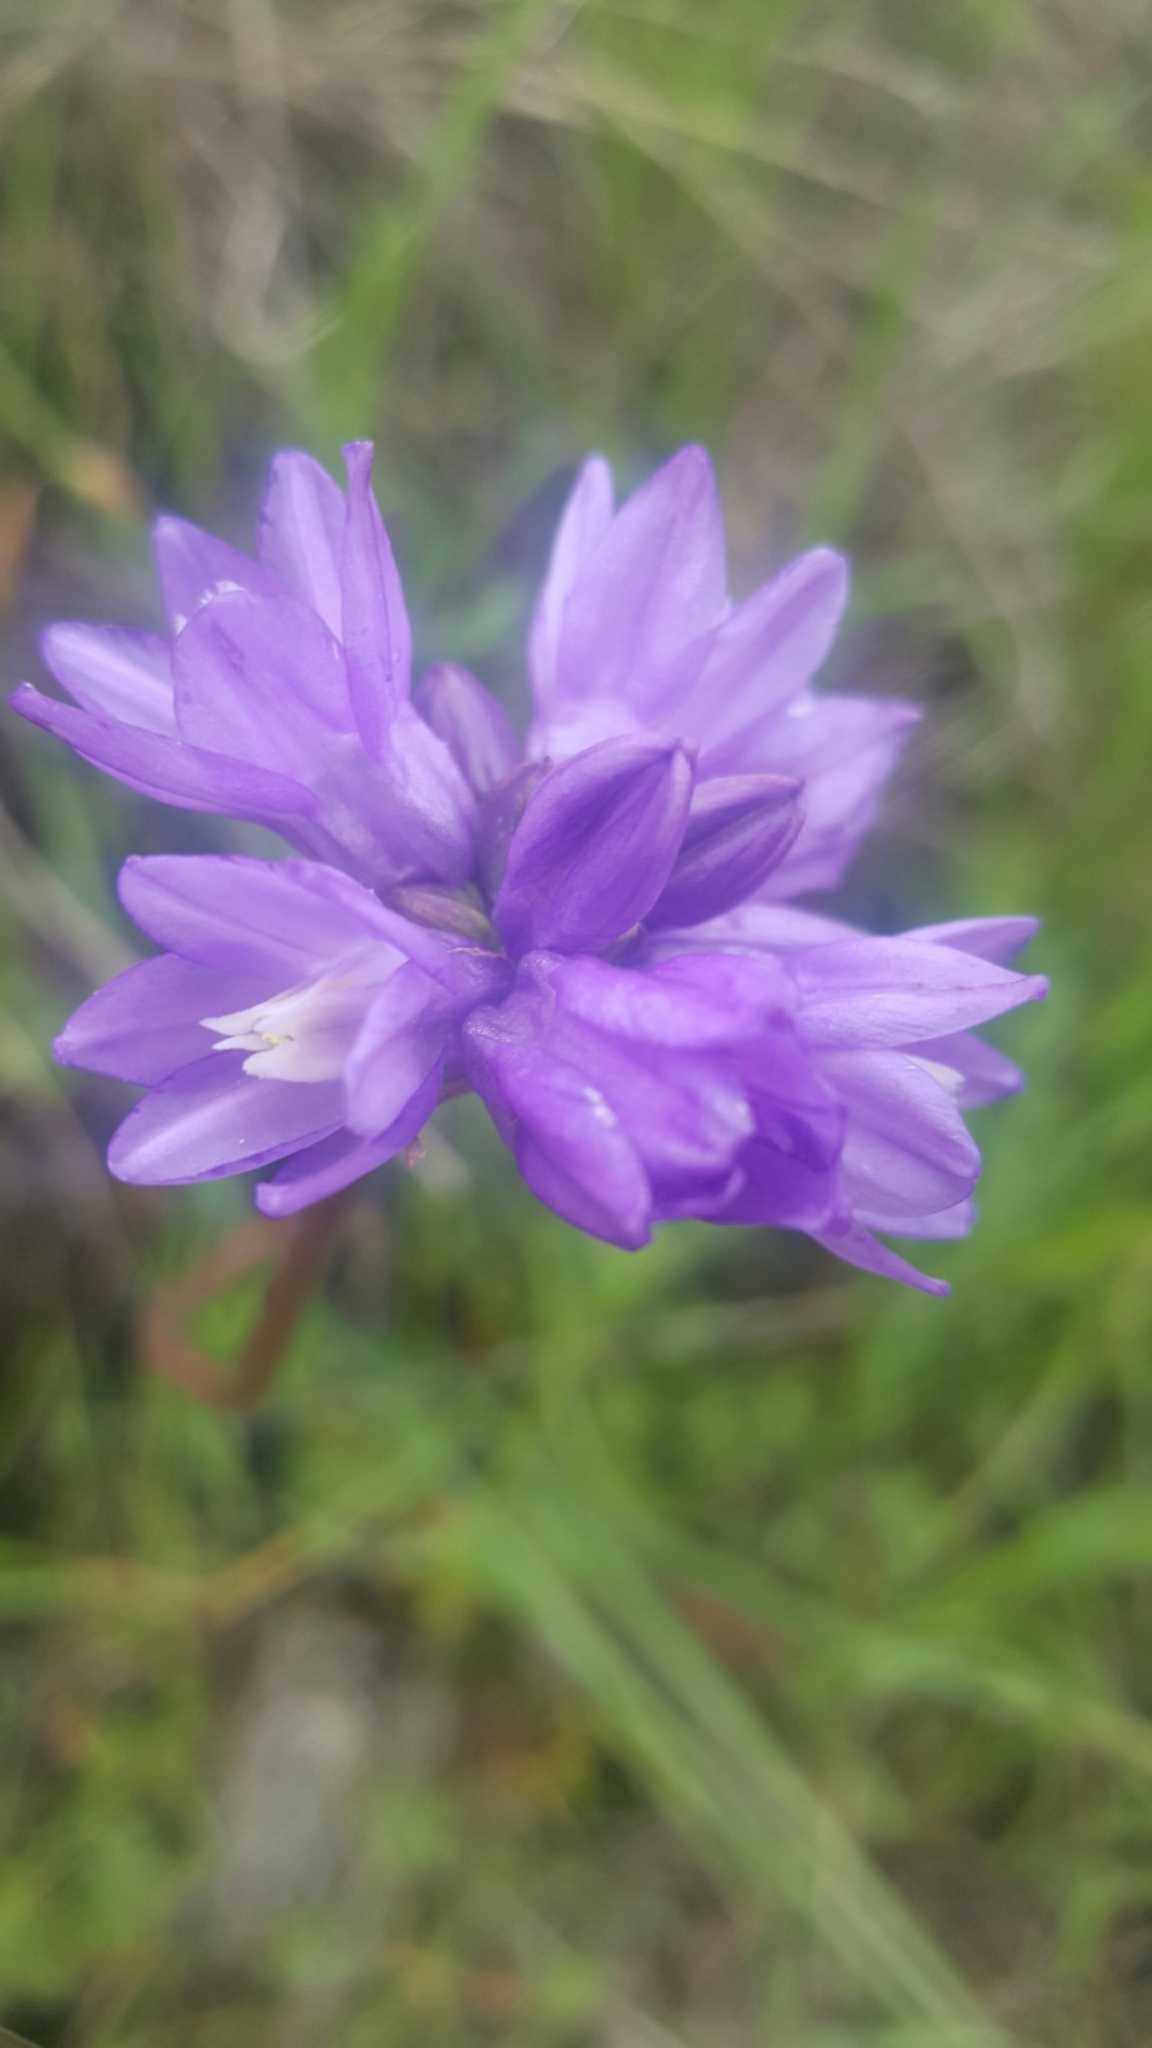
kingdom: Plantae
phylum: Tracheophyta
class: Liliopsida
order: Asparagales
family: Asparagaceae
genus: Dipterostemon
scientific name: Dipterostemon capitatus
